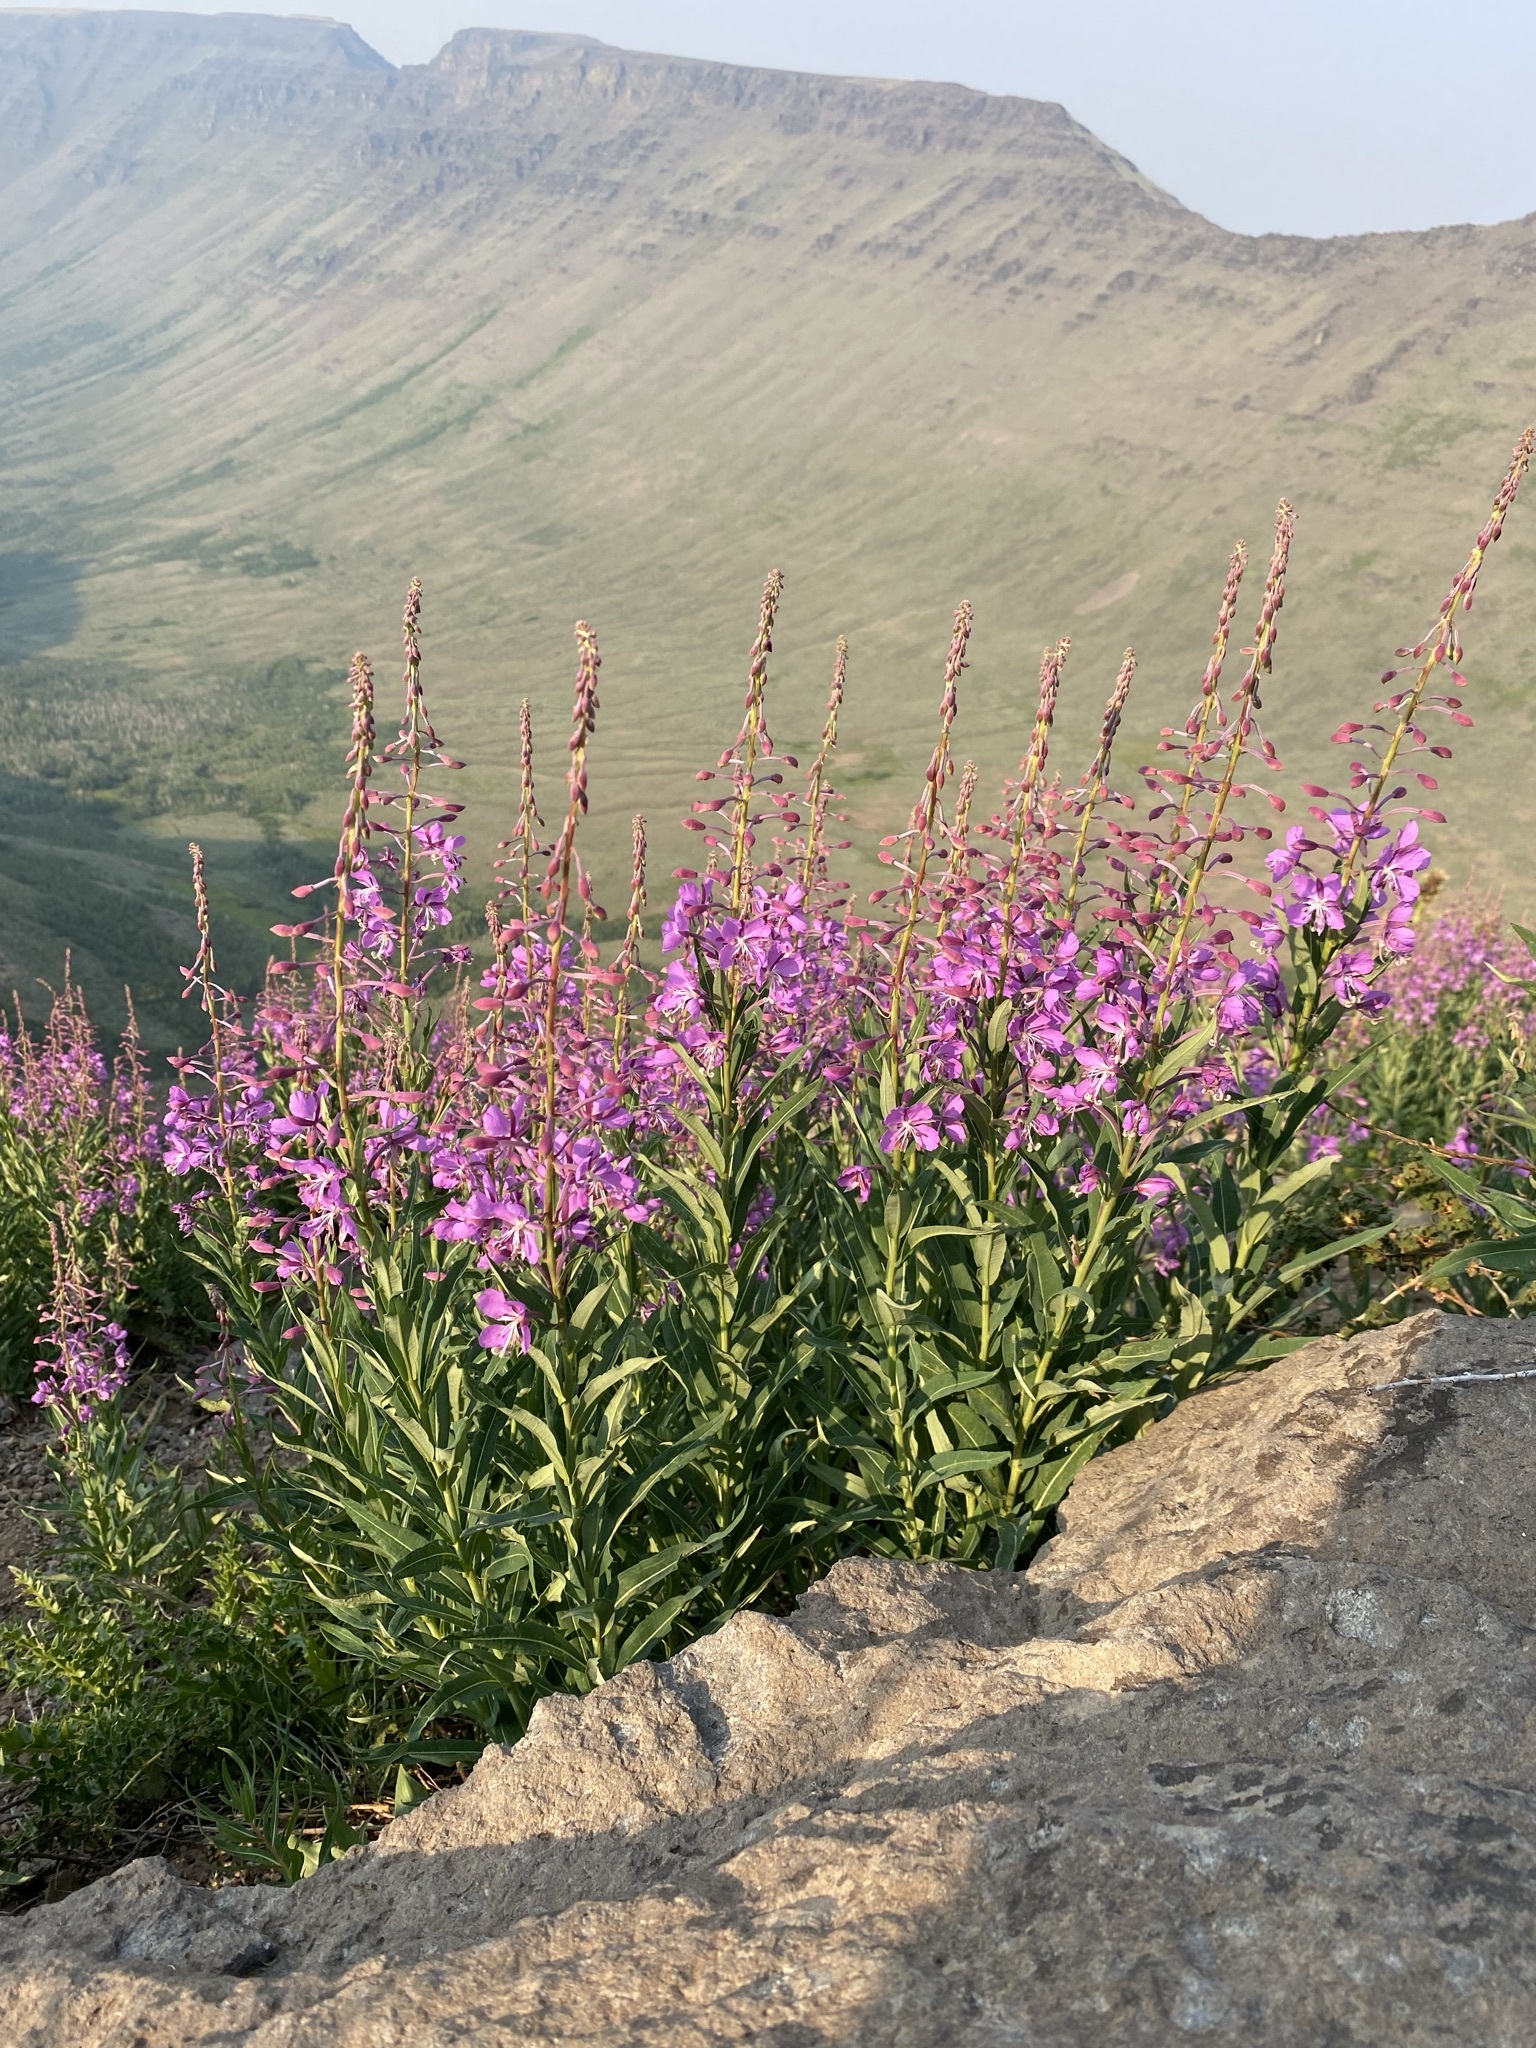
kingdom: Plantae
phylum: Tracheophyta
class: Magnoliopsida
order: Myrtales
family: Onagraceae
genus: Chamaenerion
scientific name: Chamaenerion angustifolium
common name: Fireweed
